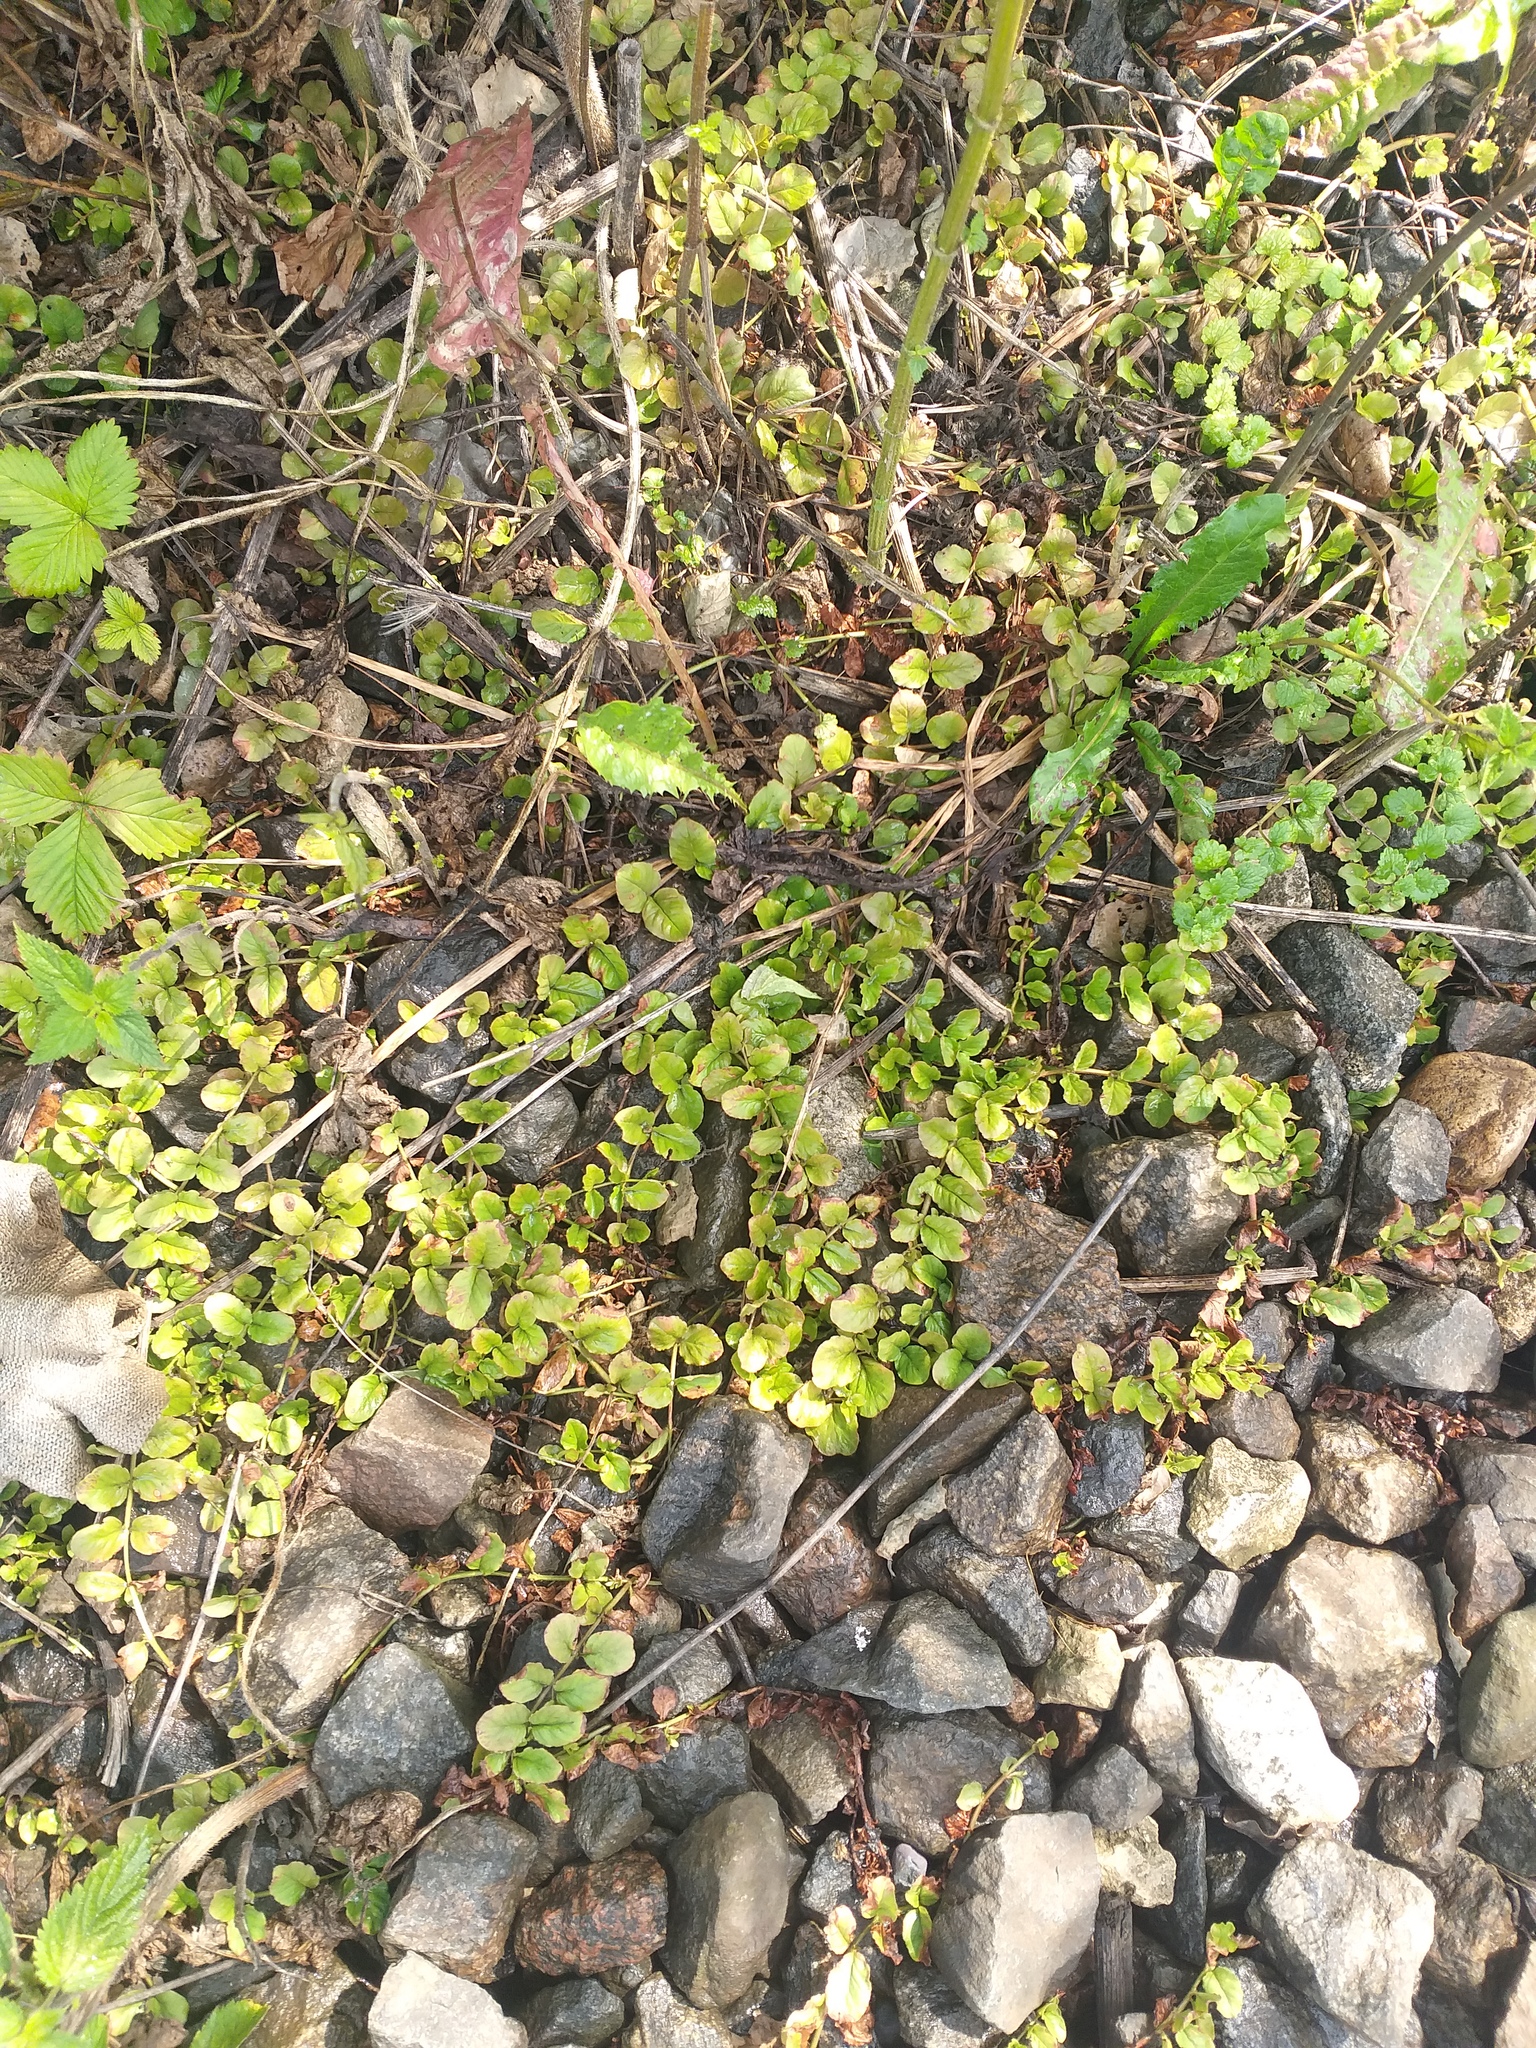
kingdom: Plantae
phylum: Tracheophyta
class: Magnoliopsida
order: Ericales
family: Primulaceae
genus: Lysimachia
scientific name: Lysimachia nummularia
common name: Moneywort
